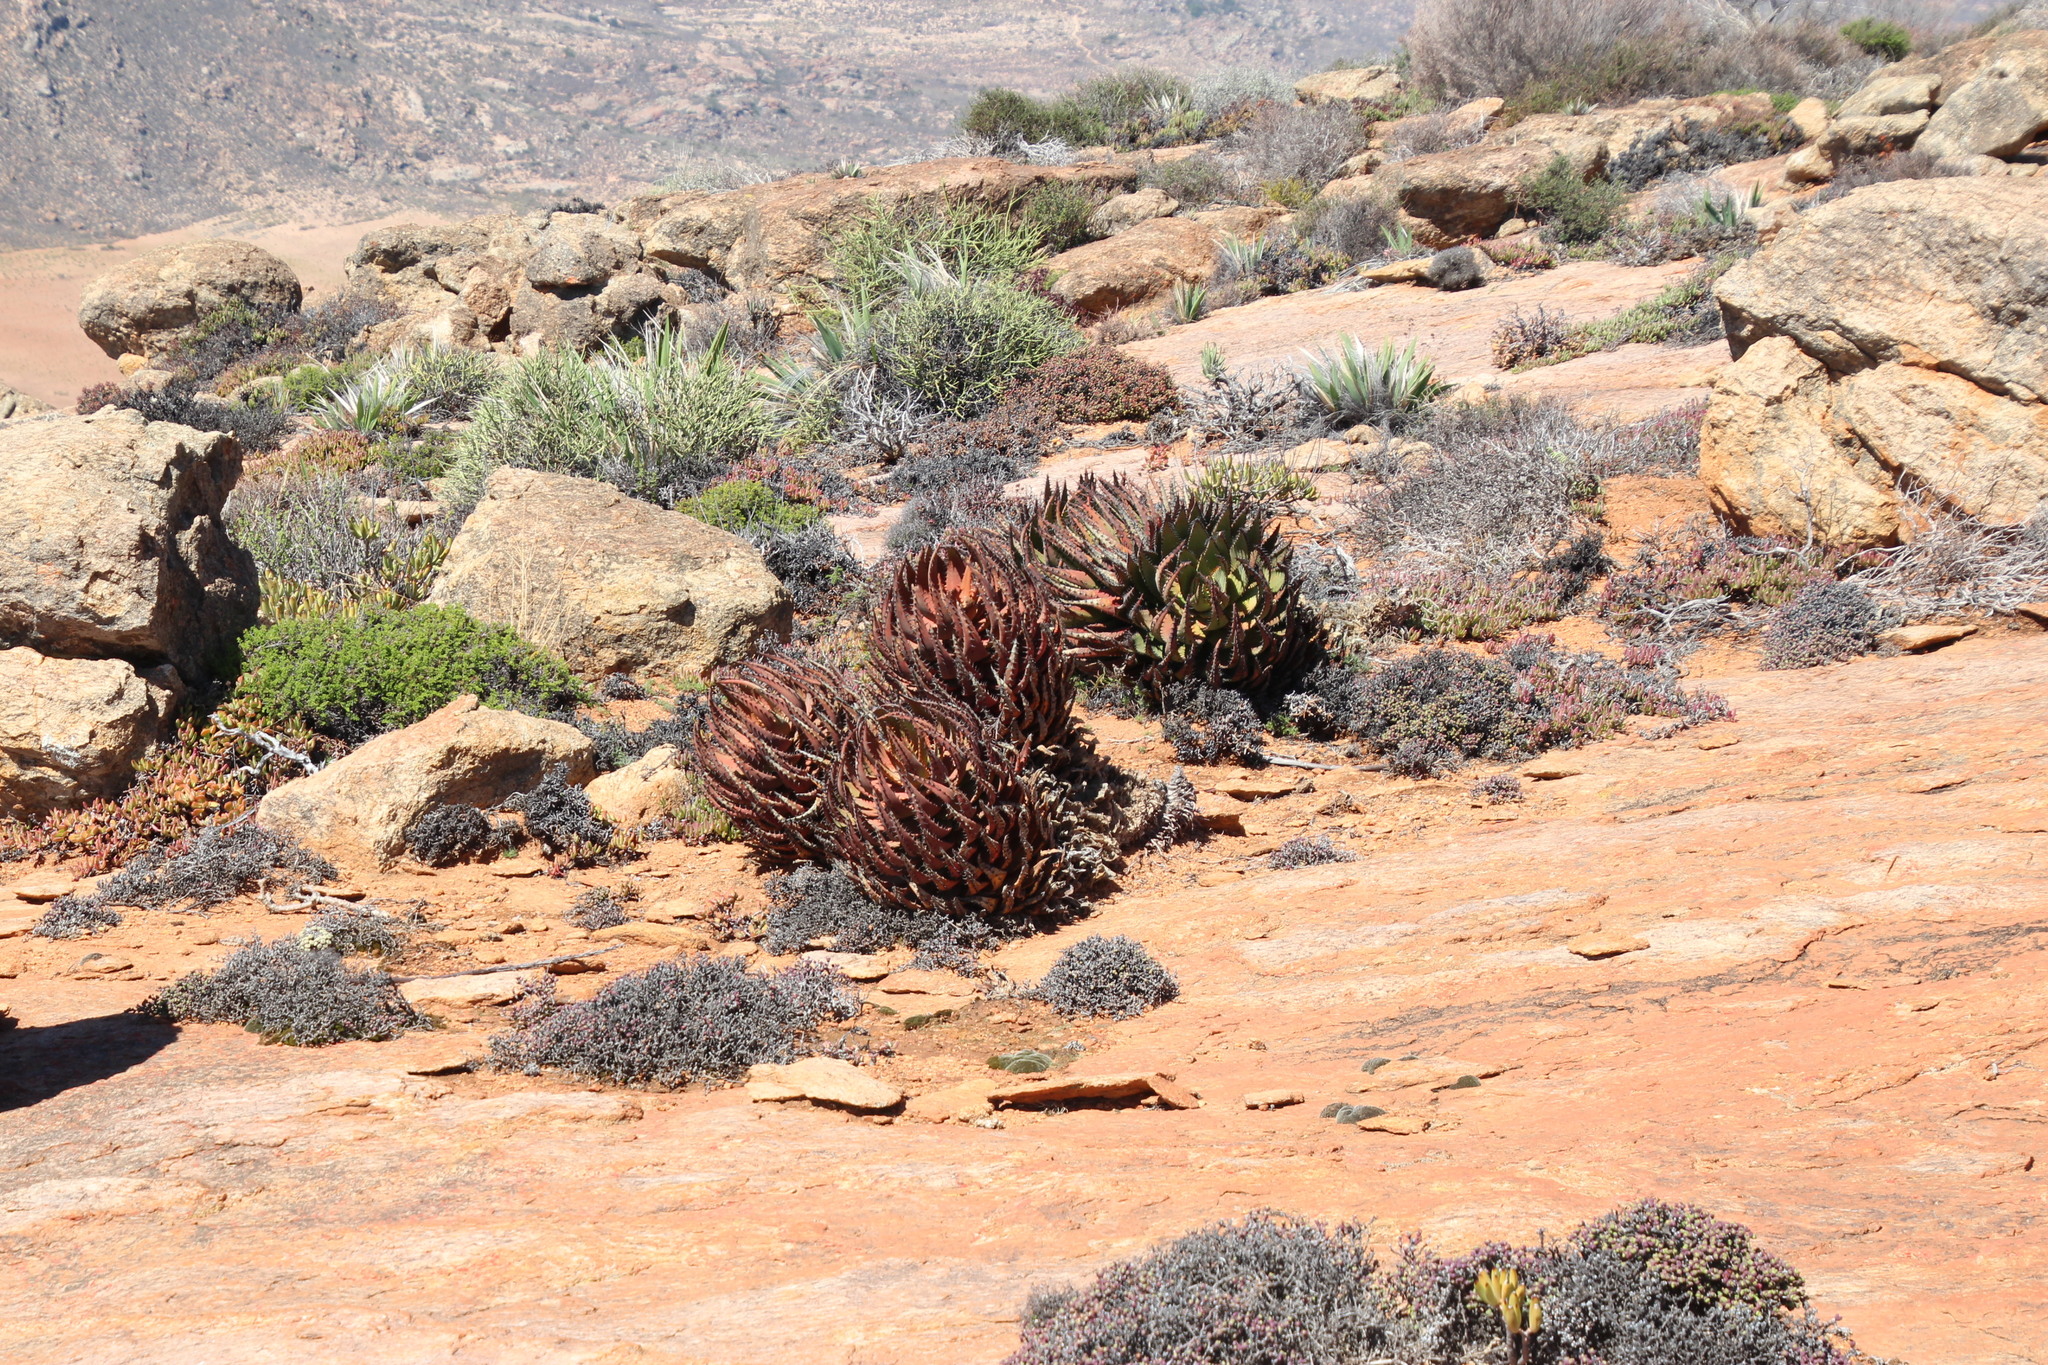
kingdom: Plantae
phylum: Tracheophyta
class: Liliopsida
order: Asparagales
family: Asphodelaceae
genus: Aloe
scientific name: Aloe melanacantha
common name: Black thorn aloe
